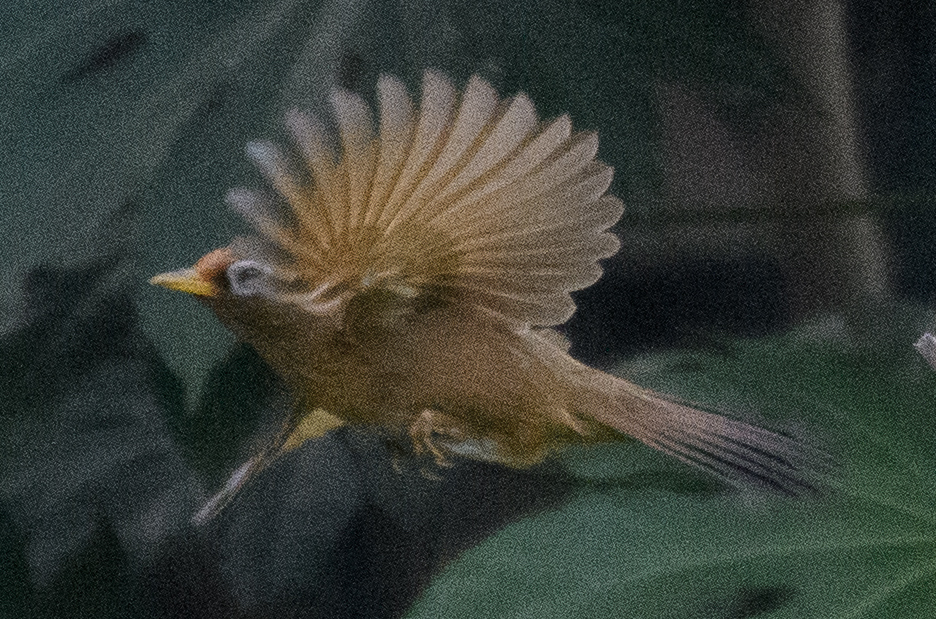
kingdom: Animalia
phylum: Chordata
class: Aves
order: Passeriformes
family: Leiothrichidae
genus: Garrulax
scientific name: Garrulax canorus
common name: Chinese hwamei
